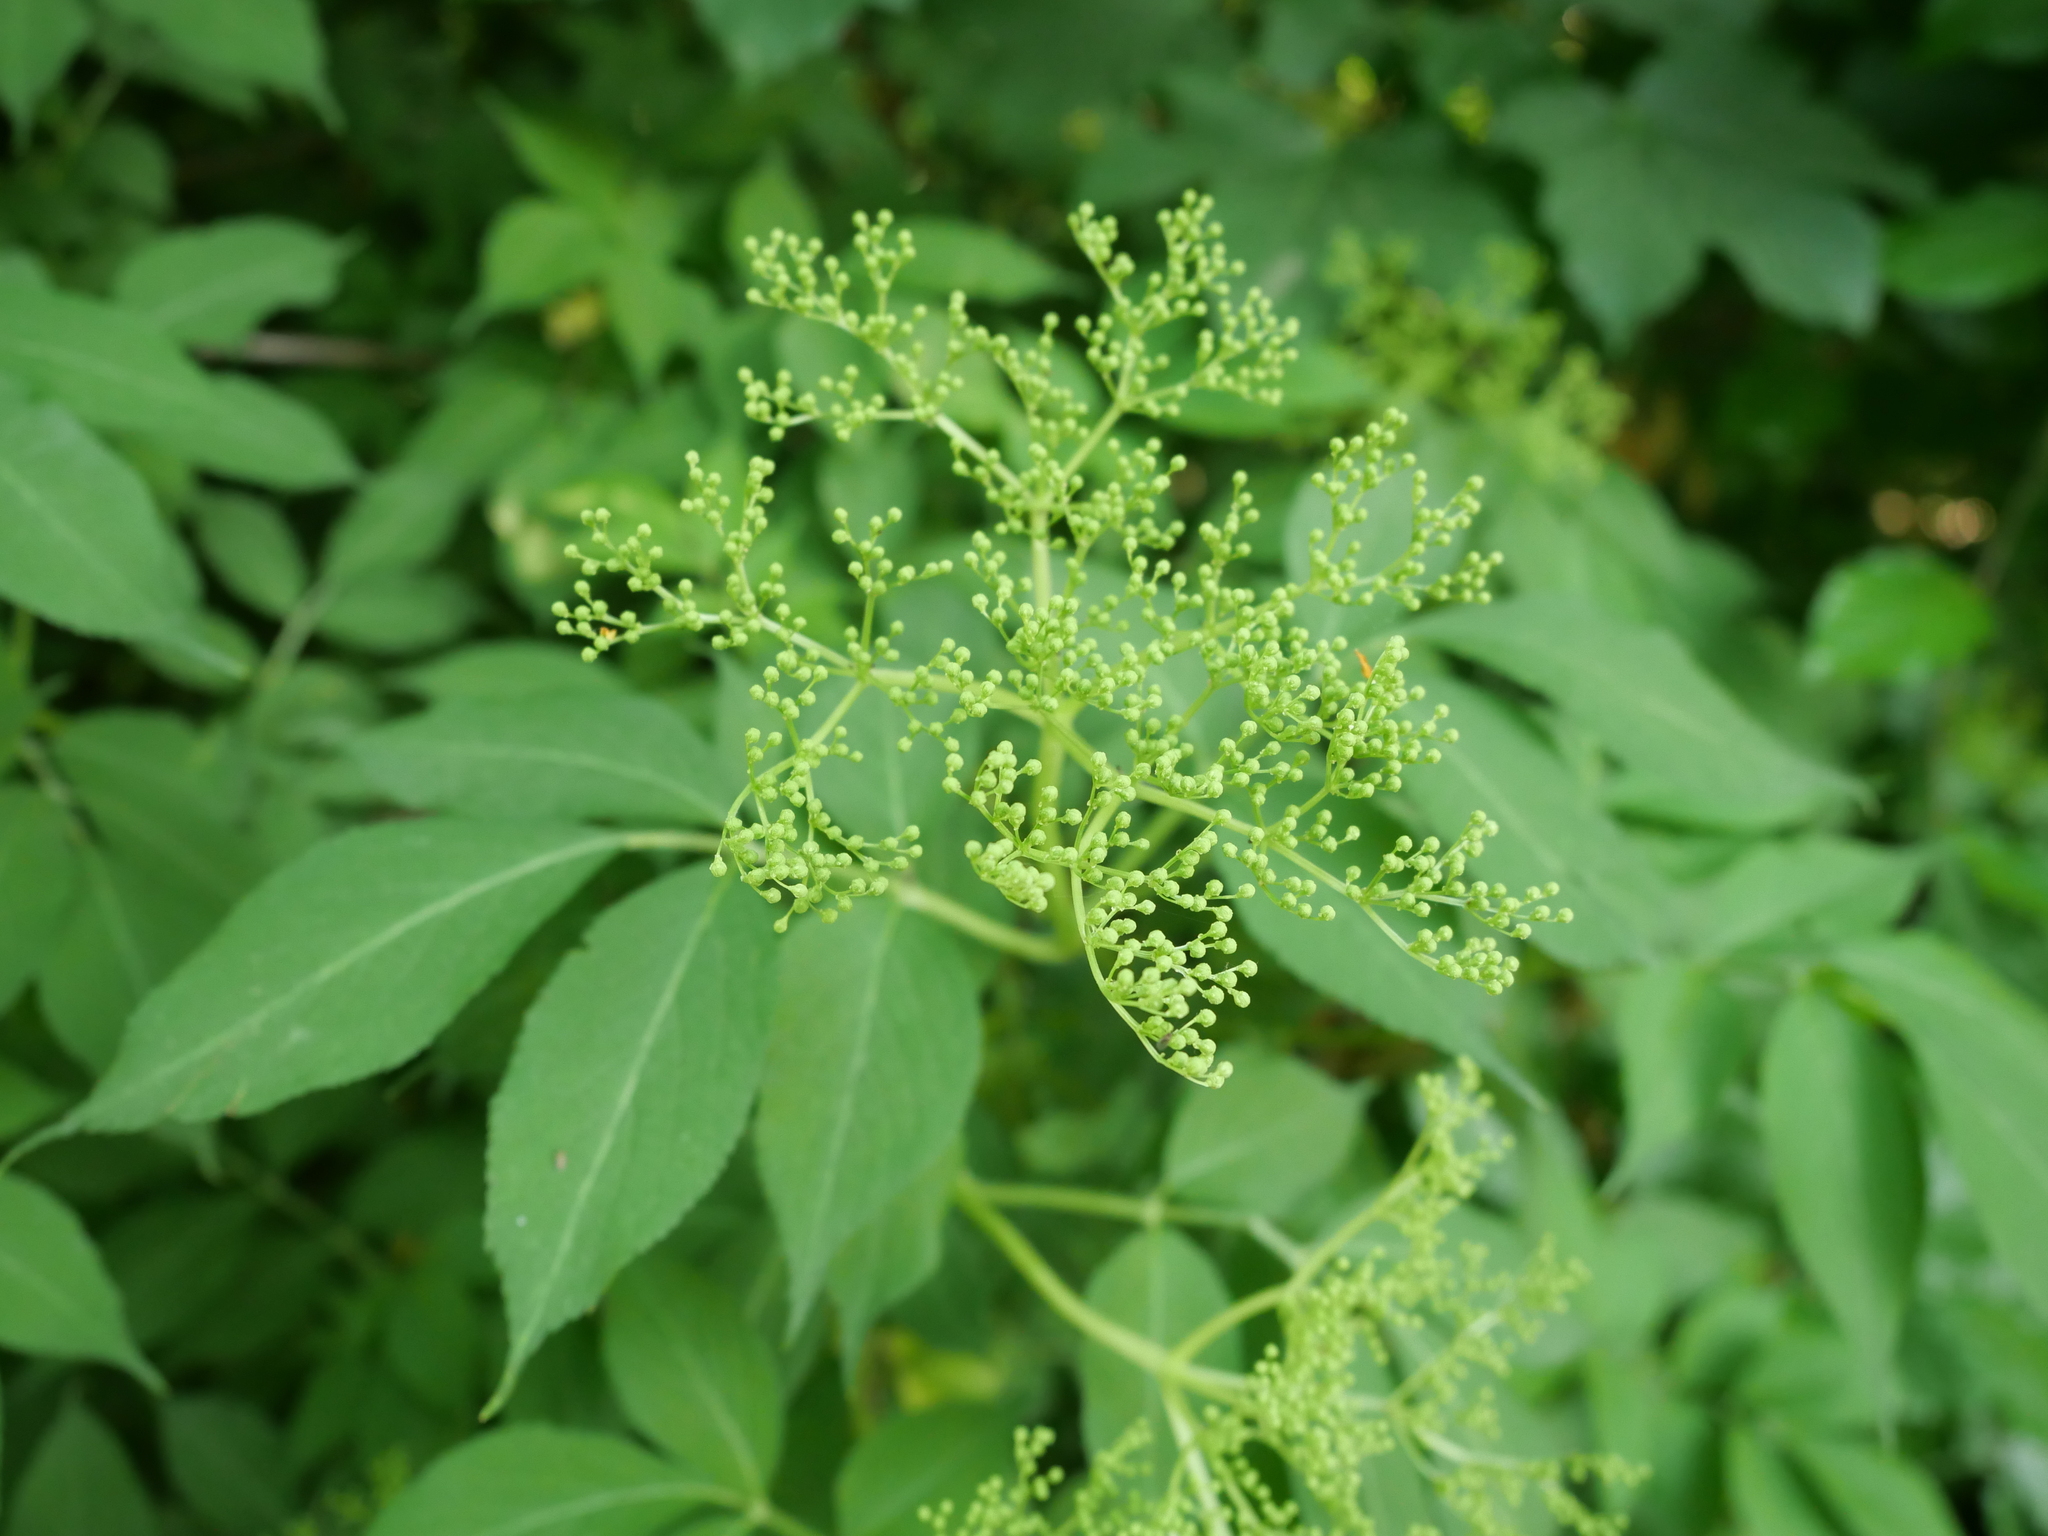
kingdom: Plantae
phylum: Tracheophyta
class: Magnoliopsida
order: Dipsacales
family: Viburnaceae
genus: Sambucus
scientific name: Sambucus nigra
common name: Elder
